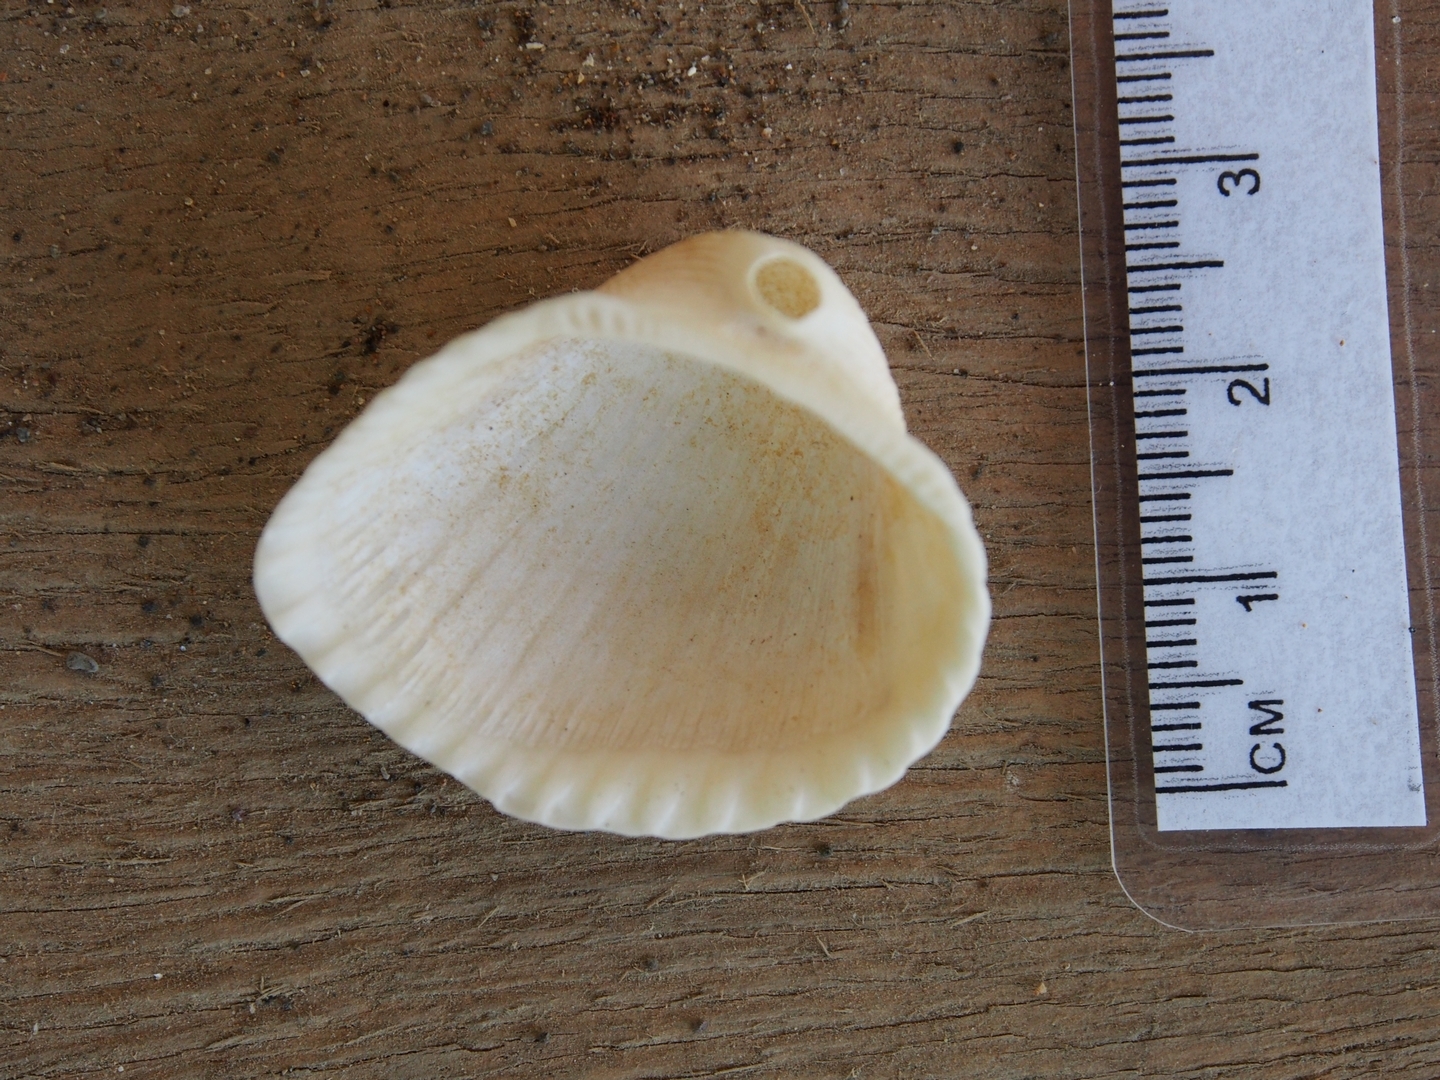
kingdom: Animalia
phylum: Mollusca
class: Bivalvia
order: Arcida
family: Arcidae
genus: Anadara
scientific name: Anadara brasiliana
